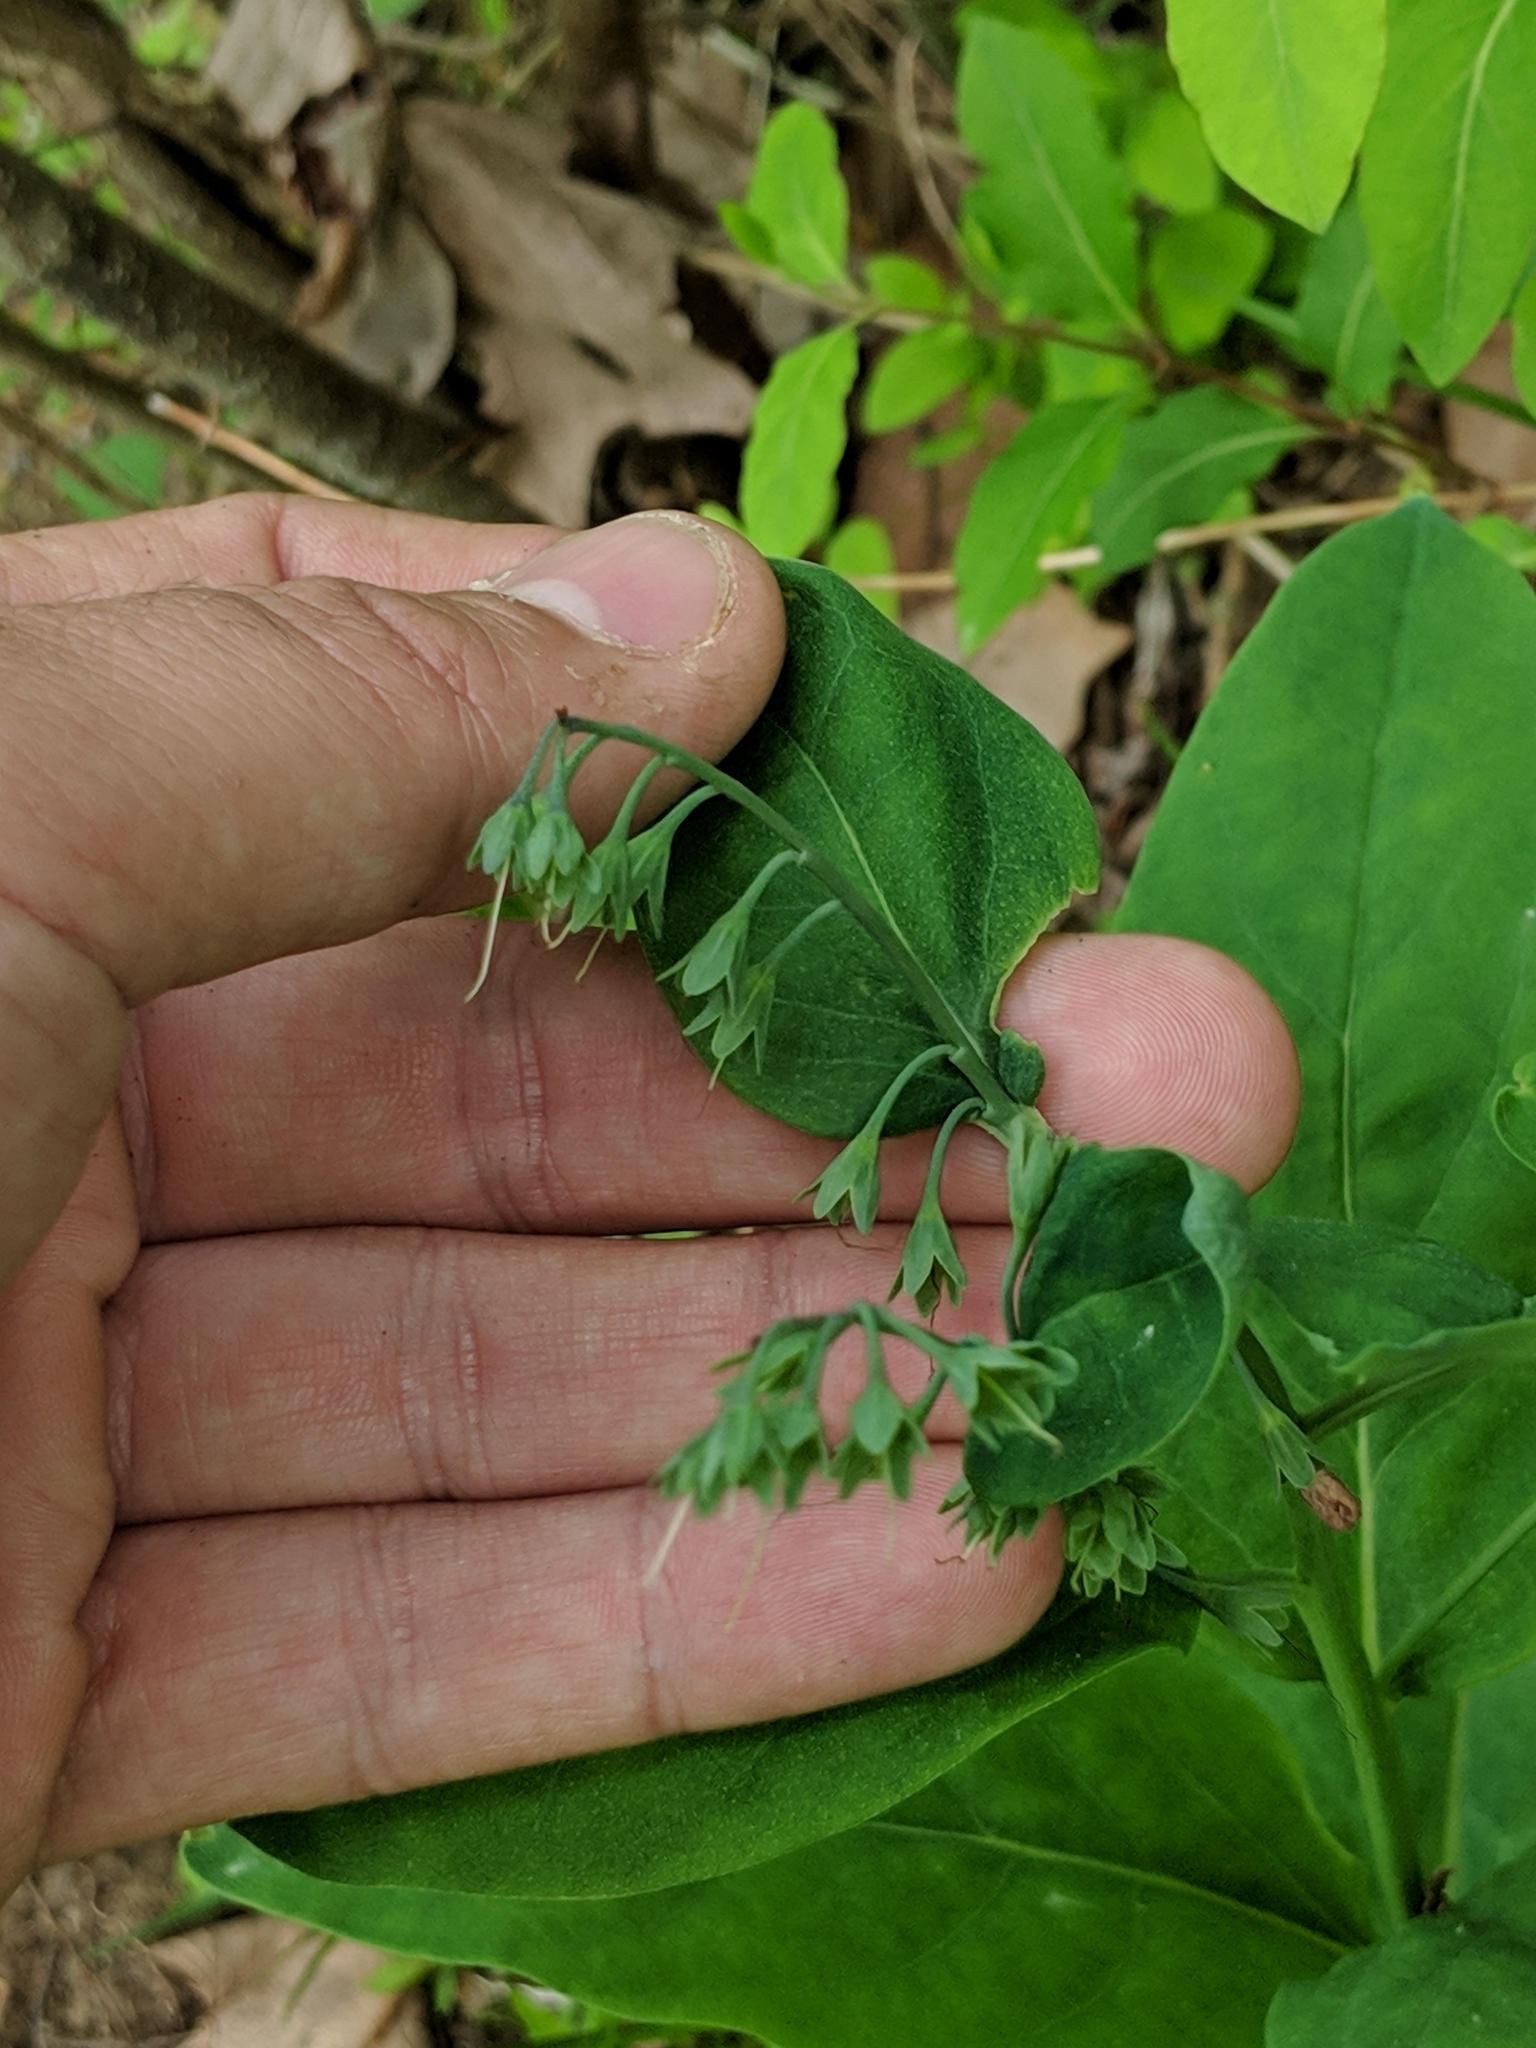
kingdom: Plantae
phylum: Tracheophyta
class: Magnoliopsida
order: Boraginales
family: Boraginaceae
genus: Mertensia
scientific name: Mertensia virginica
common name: Virginia bluebells
